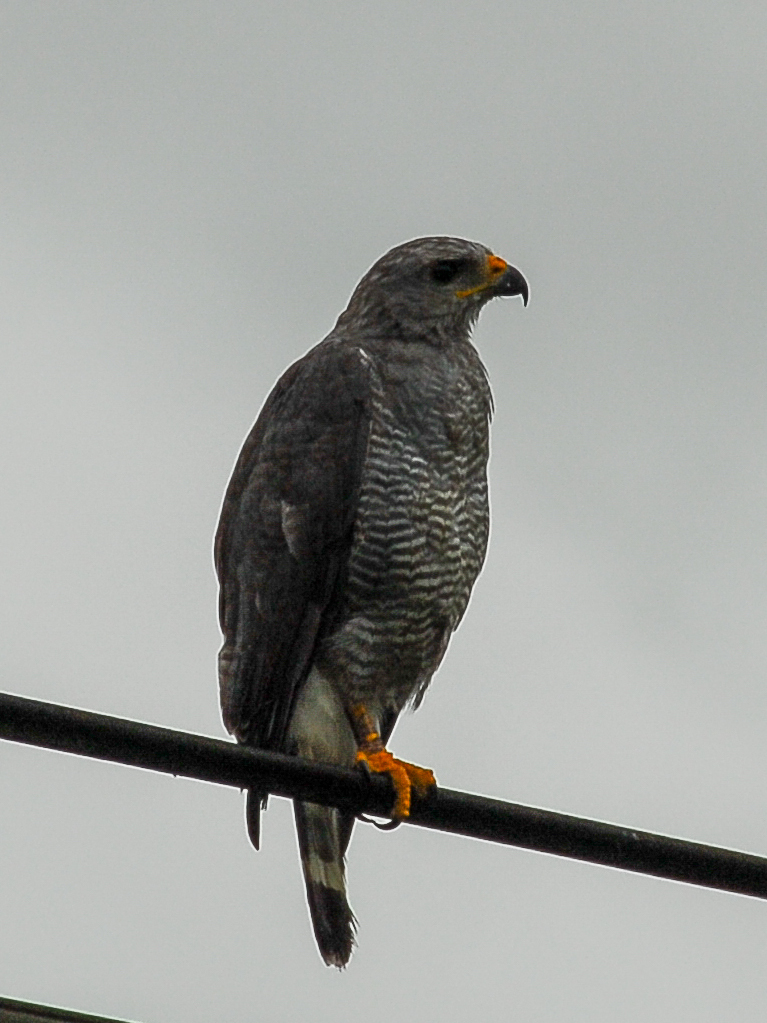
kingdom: Animalia
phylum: Chordata
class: Aves
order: Accipitriformes
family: Accipitridae
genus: Buteo
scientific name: Buteo nitidus
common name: Grey-lined hawk
